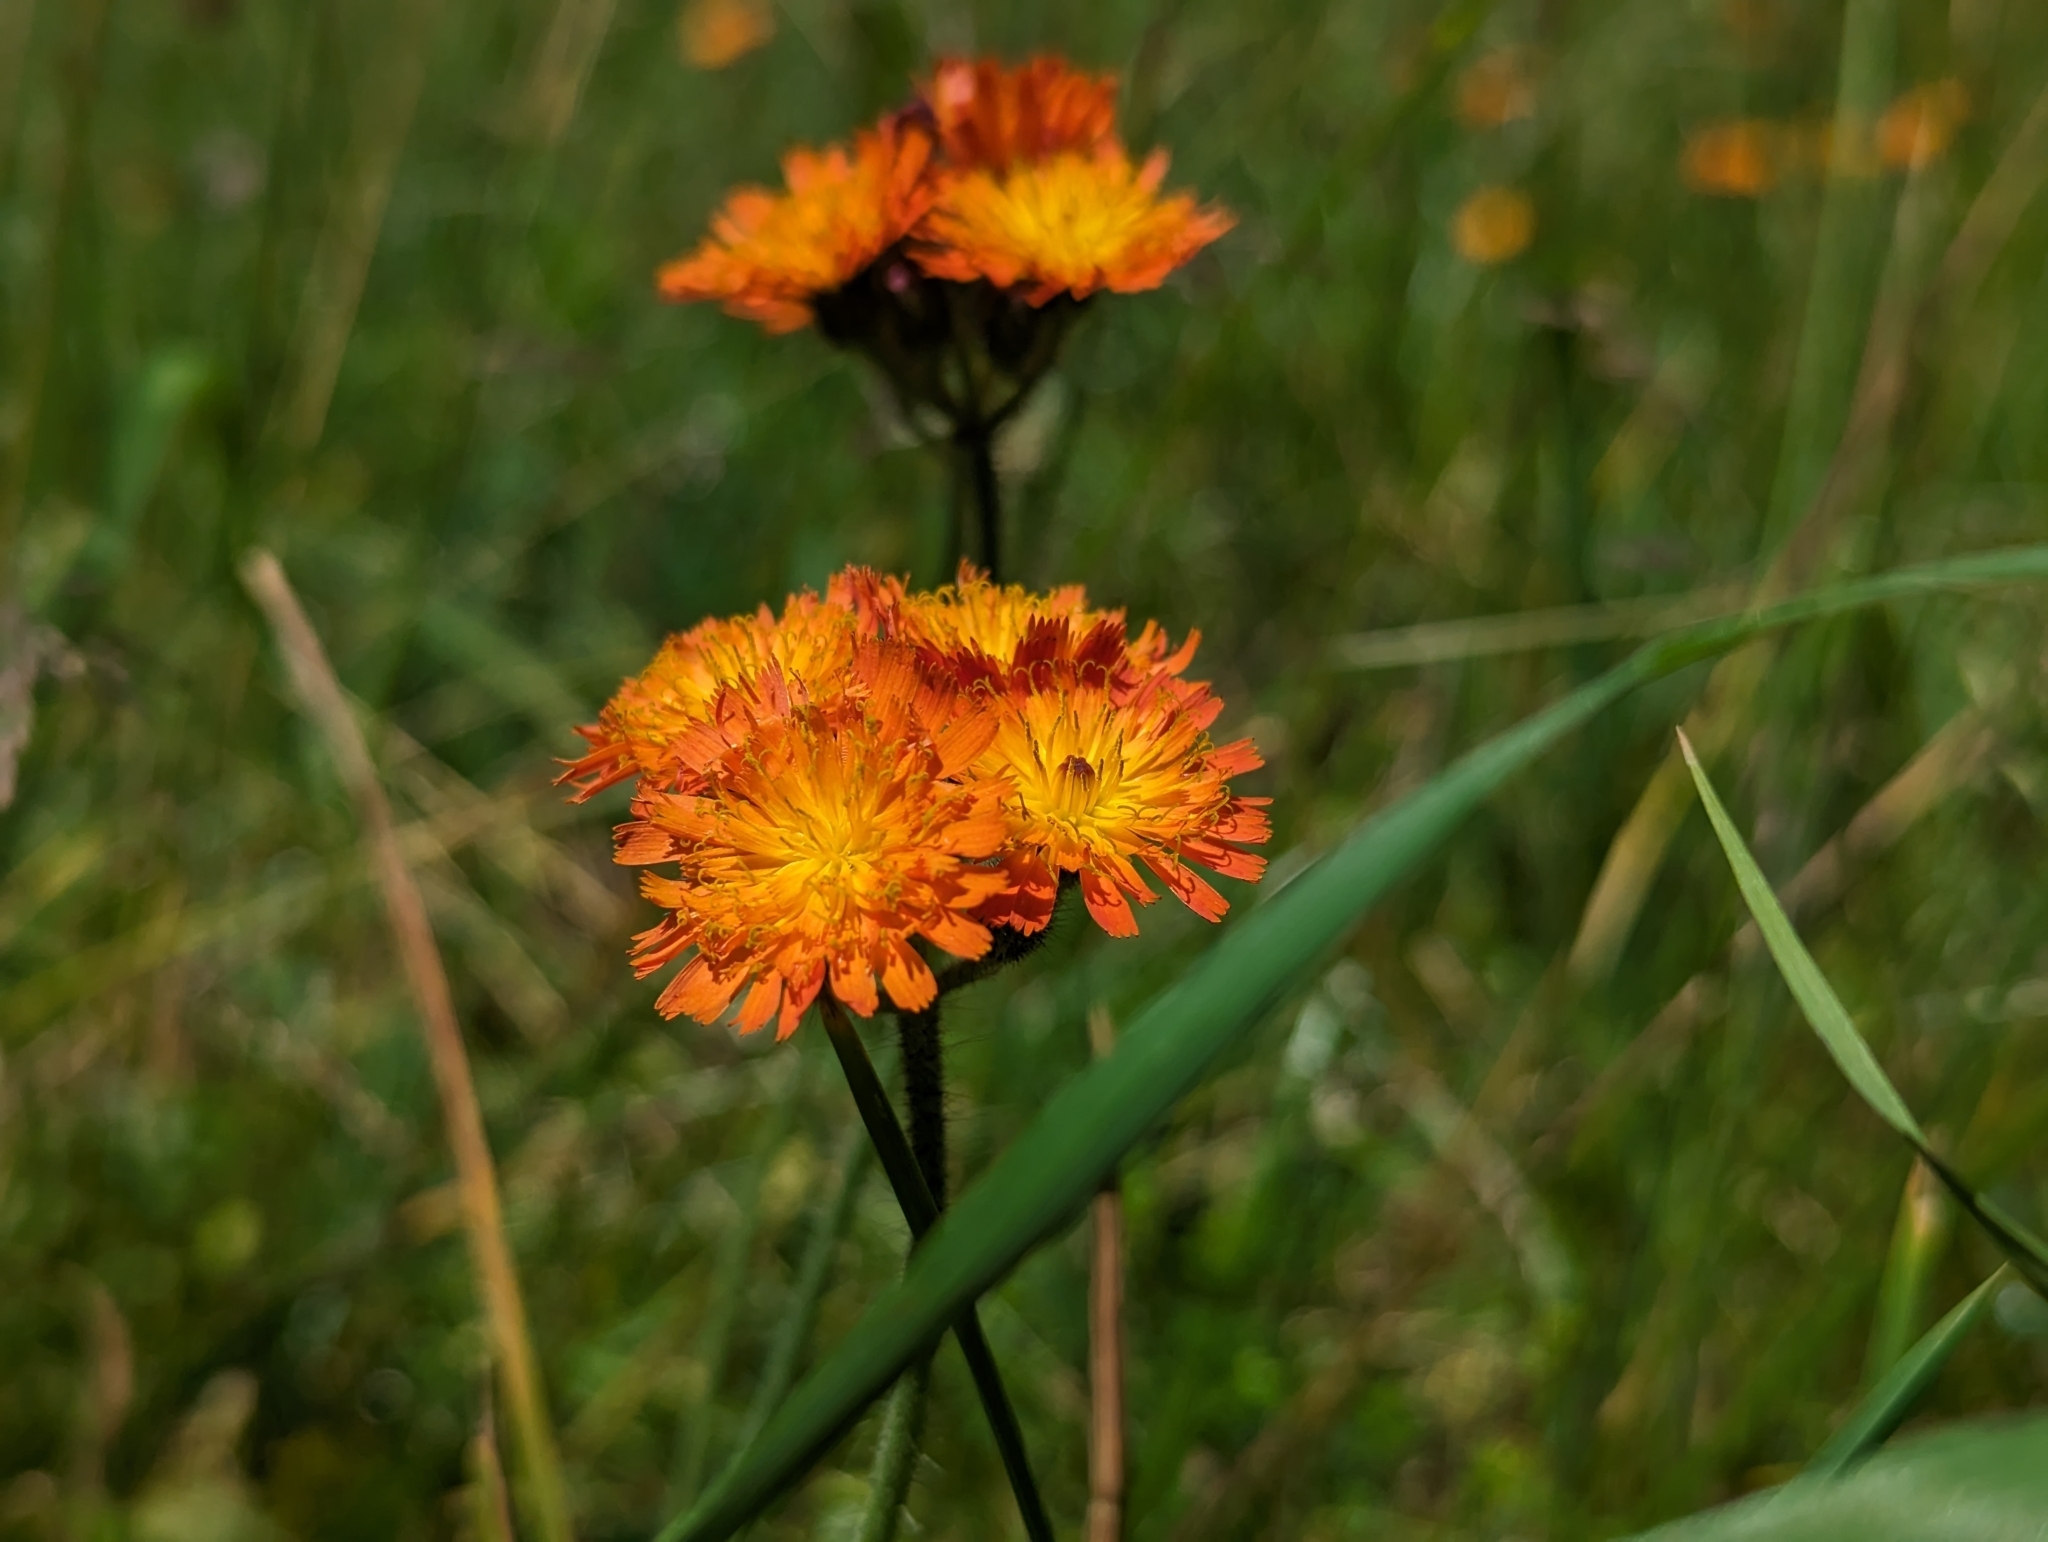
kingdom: Plantae
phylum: Tracheophyta
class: Magnoliopsida
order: Asterales
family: Asteraceae
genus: Pilosella
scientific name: Pilosella aurantiaca
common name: Fox-and-cubs
